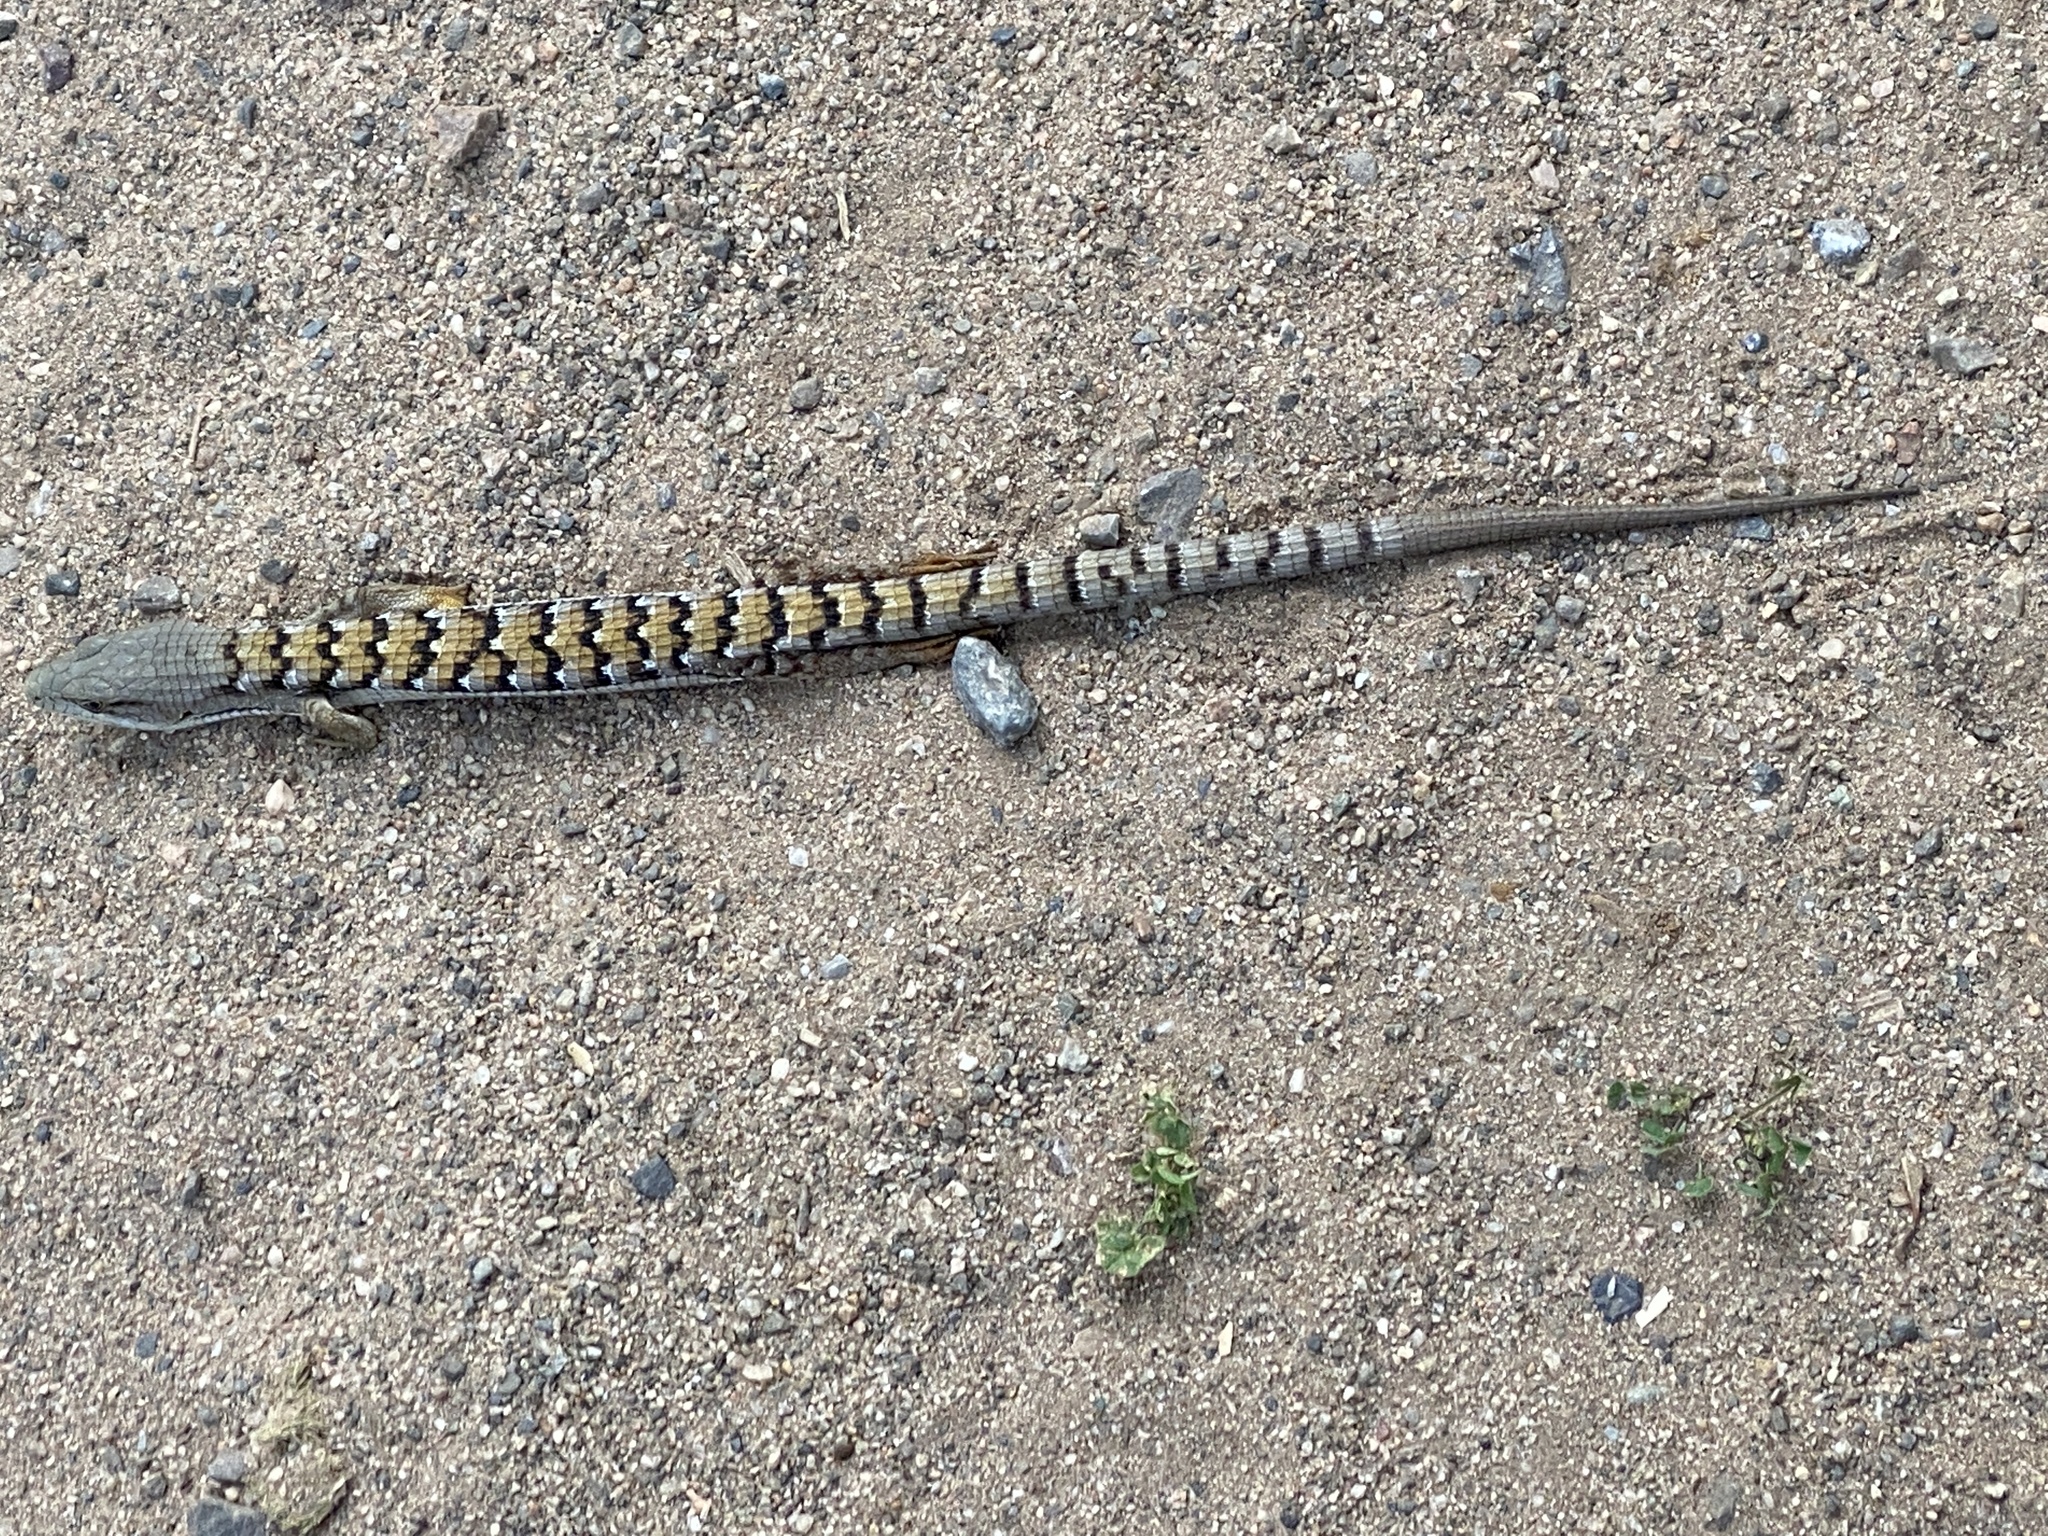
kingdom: Animalia
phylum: Chordata
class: Squamata
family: Anguidae
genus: Elgaria
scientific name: Elgaria multicarinata
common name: Southern alligator lizard
